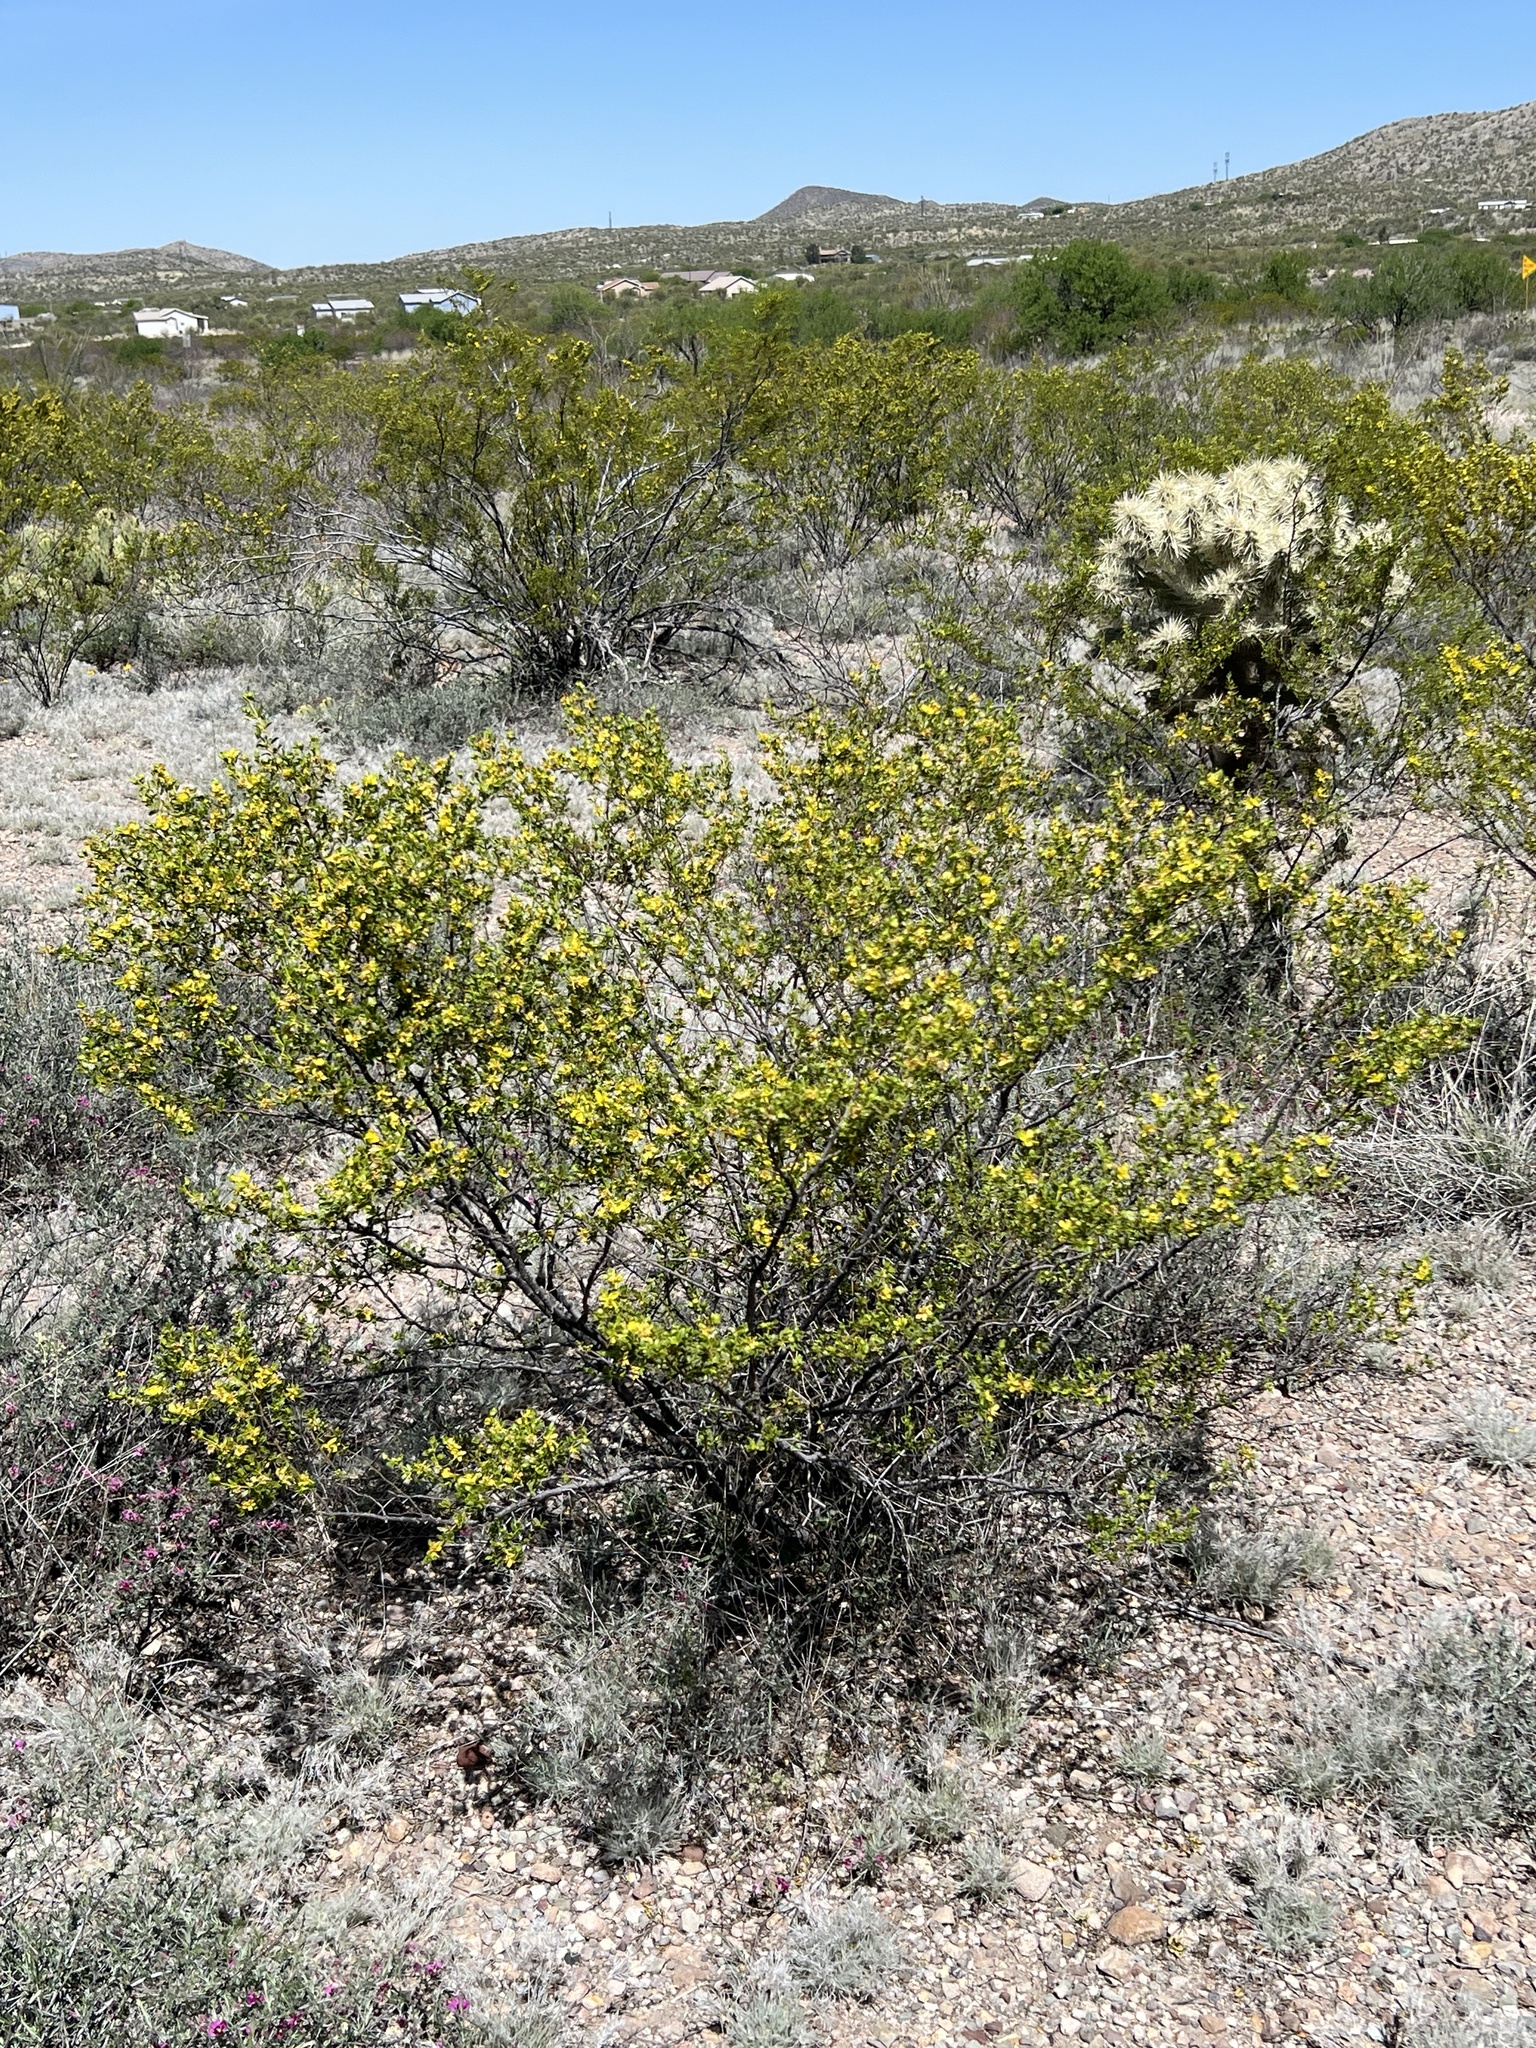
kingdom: Plantae
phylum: Tracheophyta
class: Magnoliopsida
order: Zygophyllales
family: Zygophyllaceae
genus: Larrea
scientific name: Larrea tridentata
